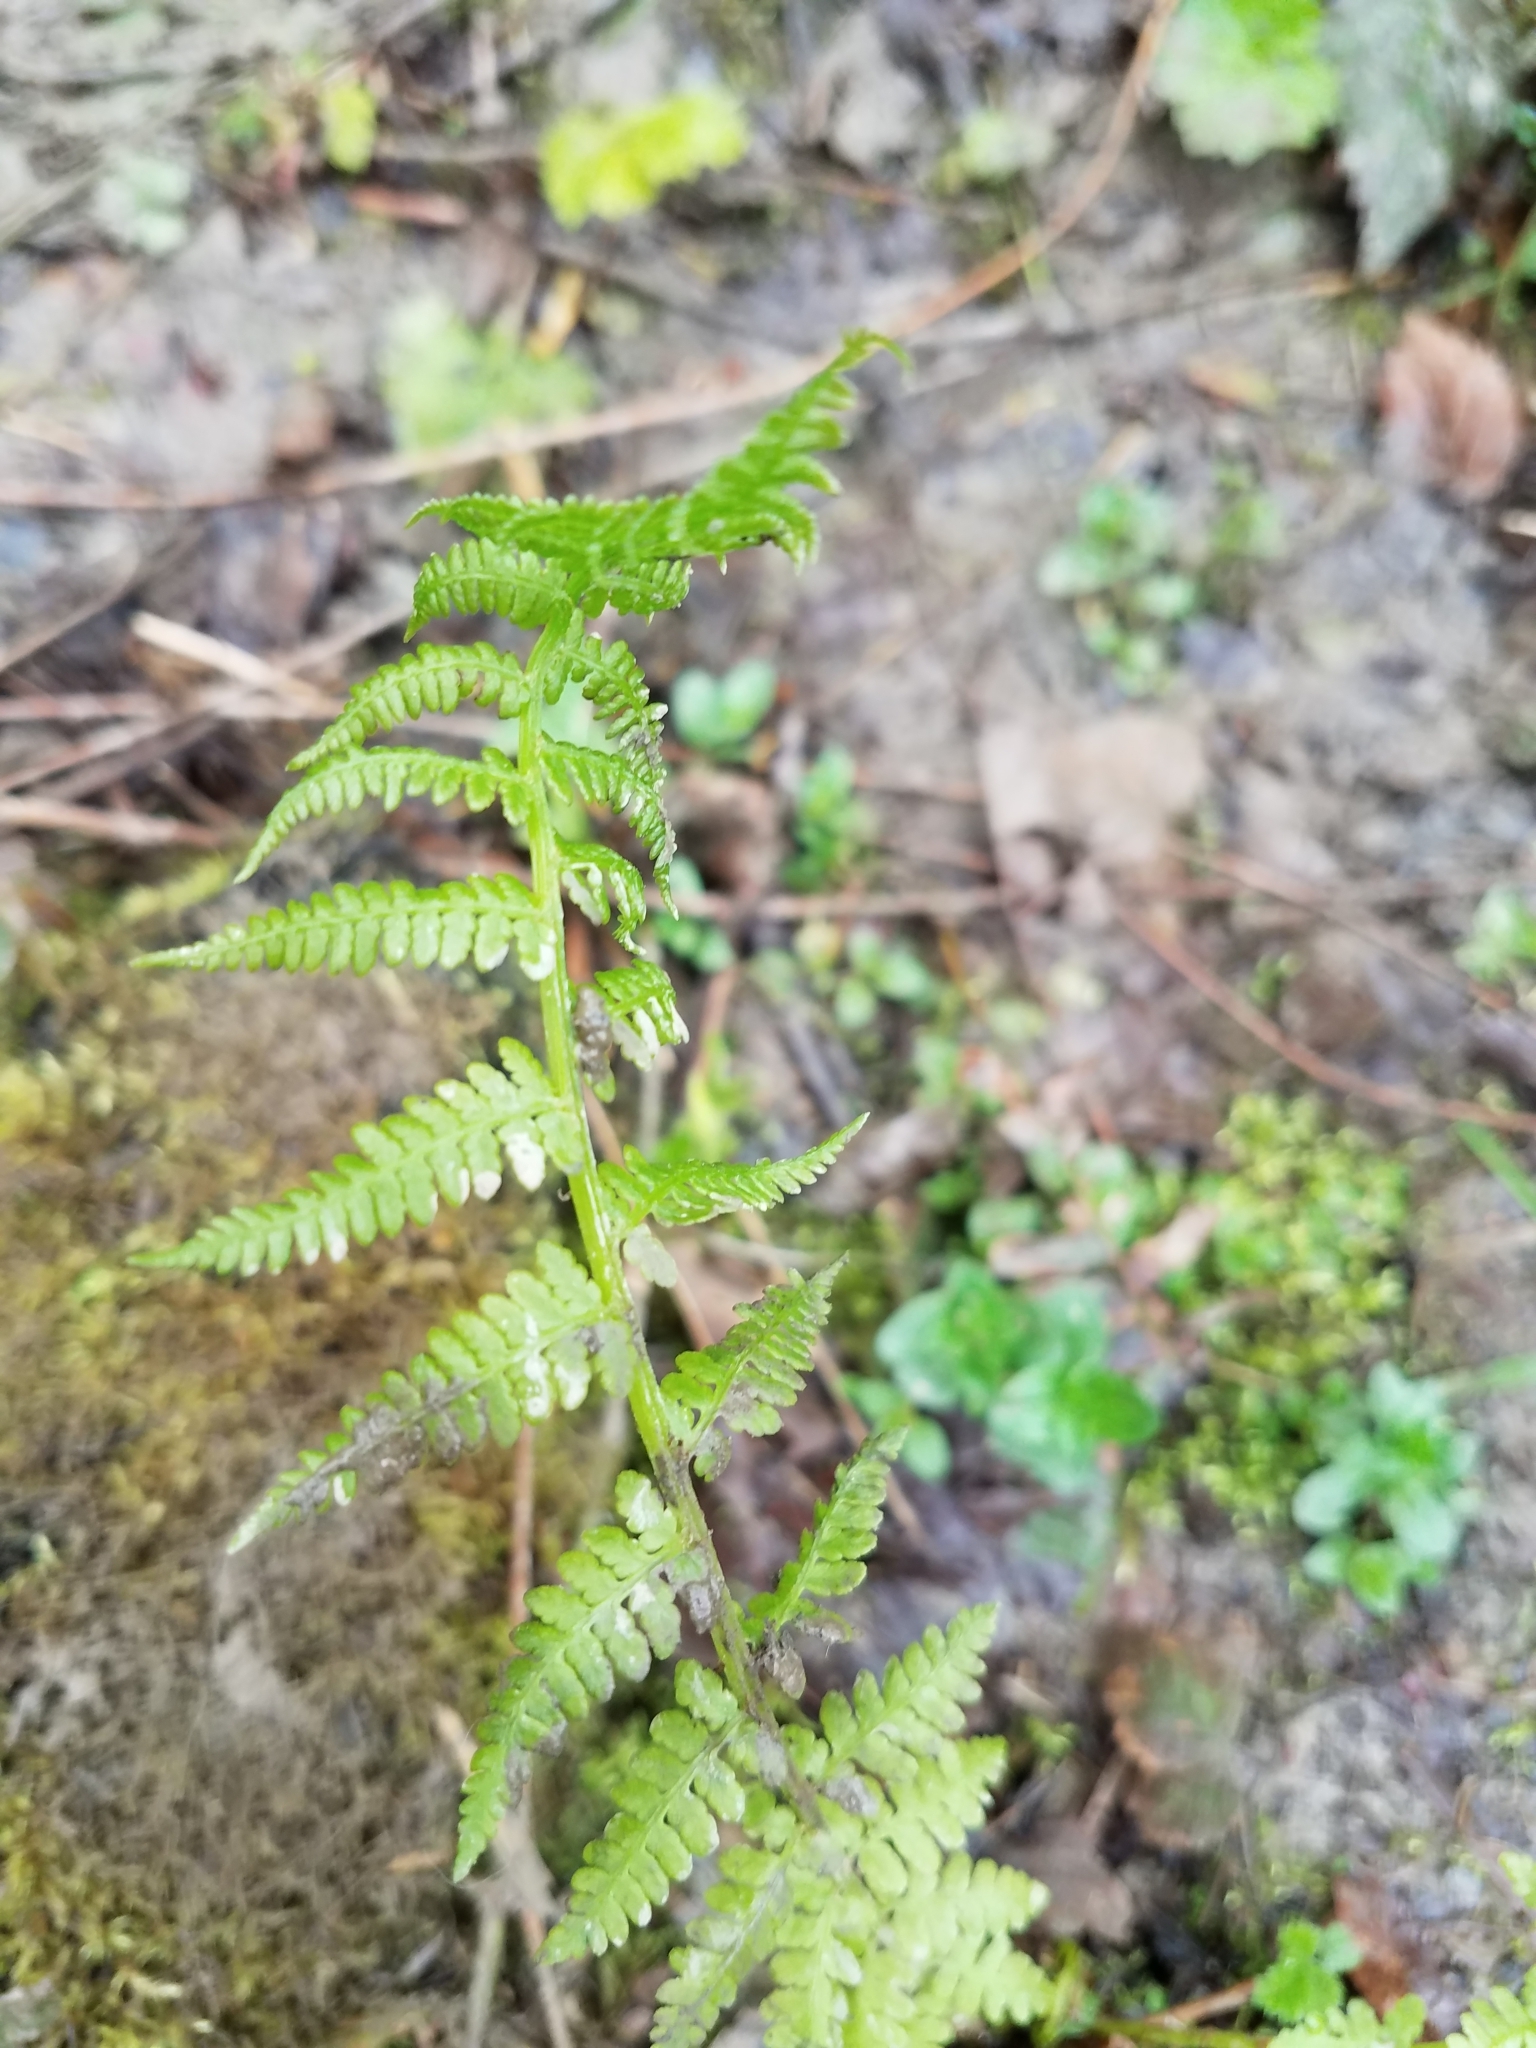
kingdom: Plantae
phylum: Tracheophyta
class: Polypodiopsida
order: Polypodiales
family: Athyriaceae
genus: Athyrium
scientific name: Athyrium cyclosorum
